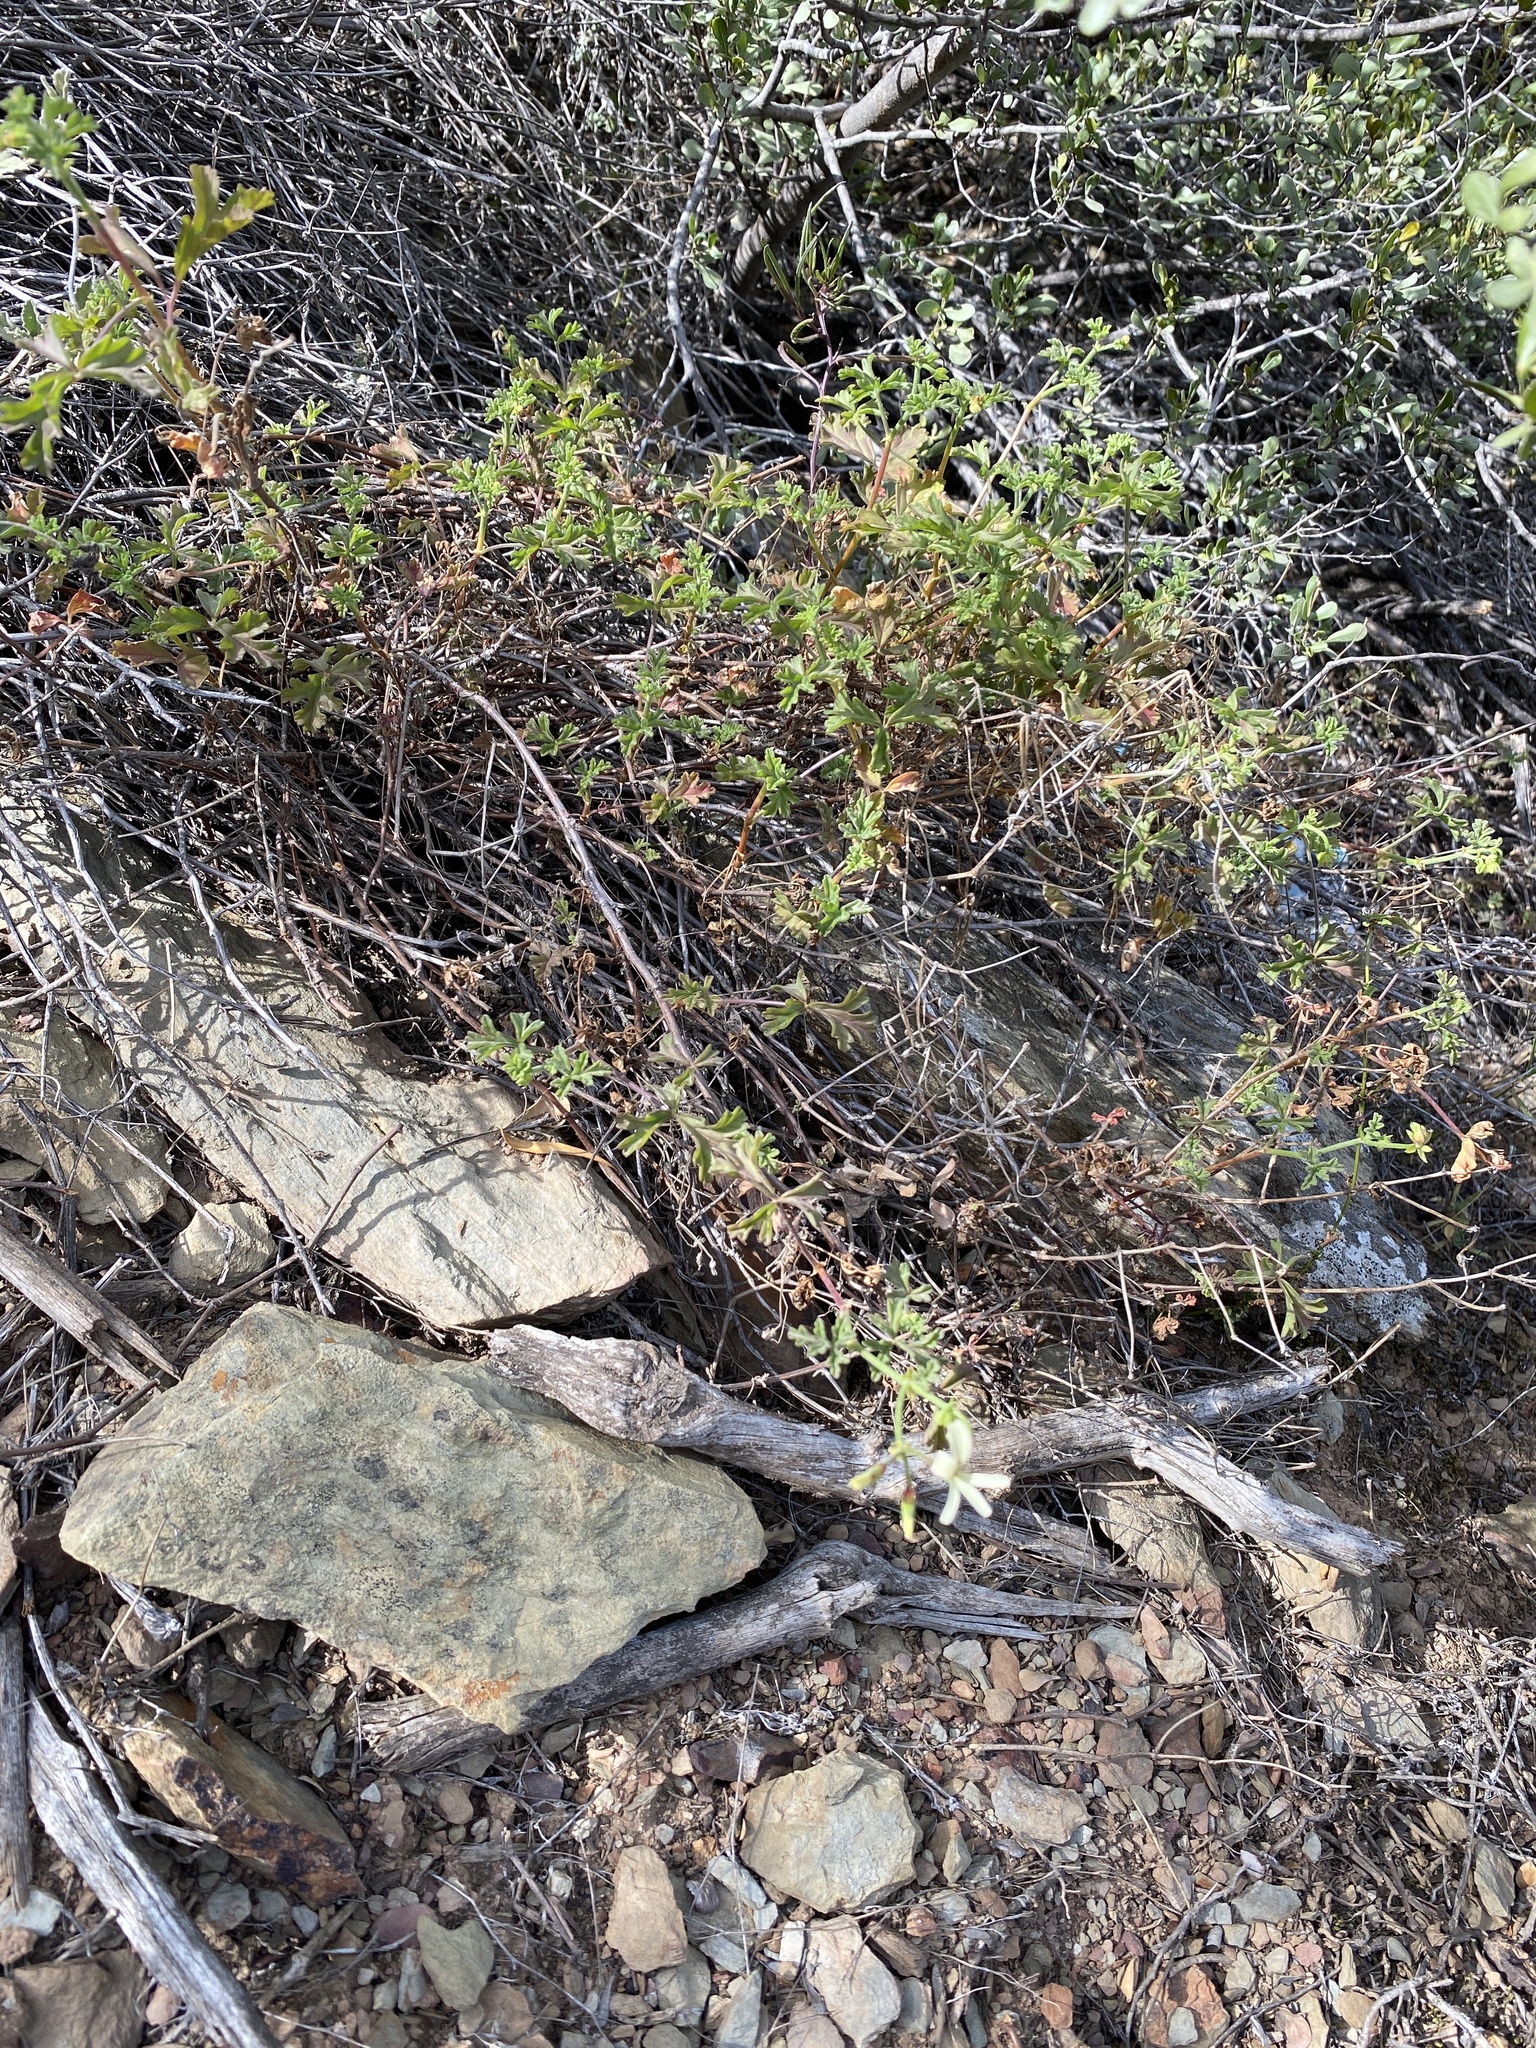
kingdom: Plantae
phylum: Tracheophyta
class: Magnoliopsida
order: Geraniales
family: Geraniaceae
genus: Pelargonium
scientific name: Pelargonium trifidum
